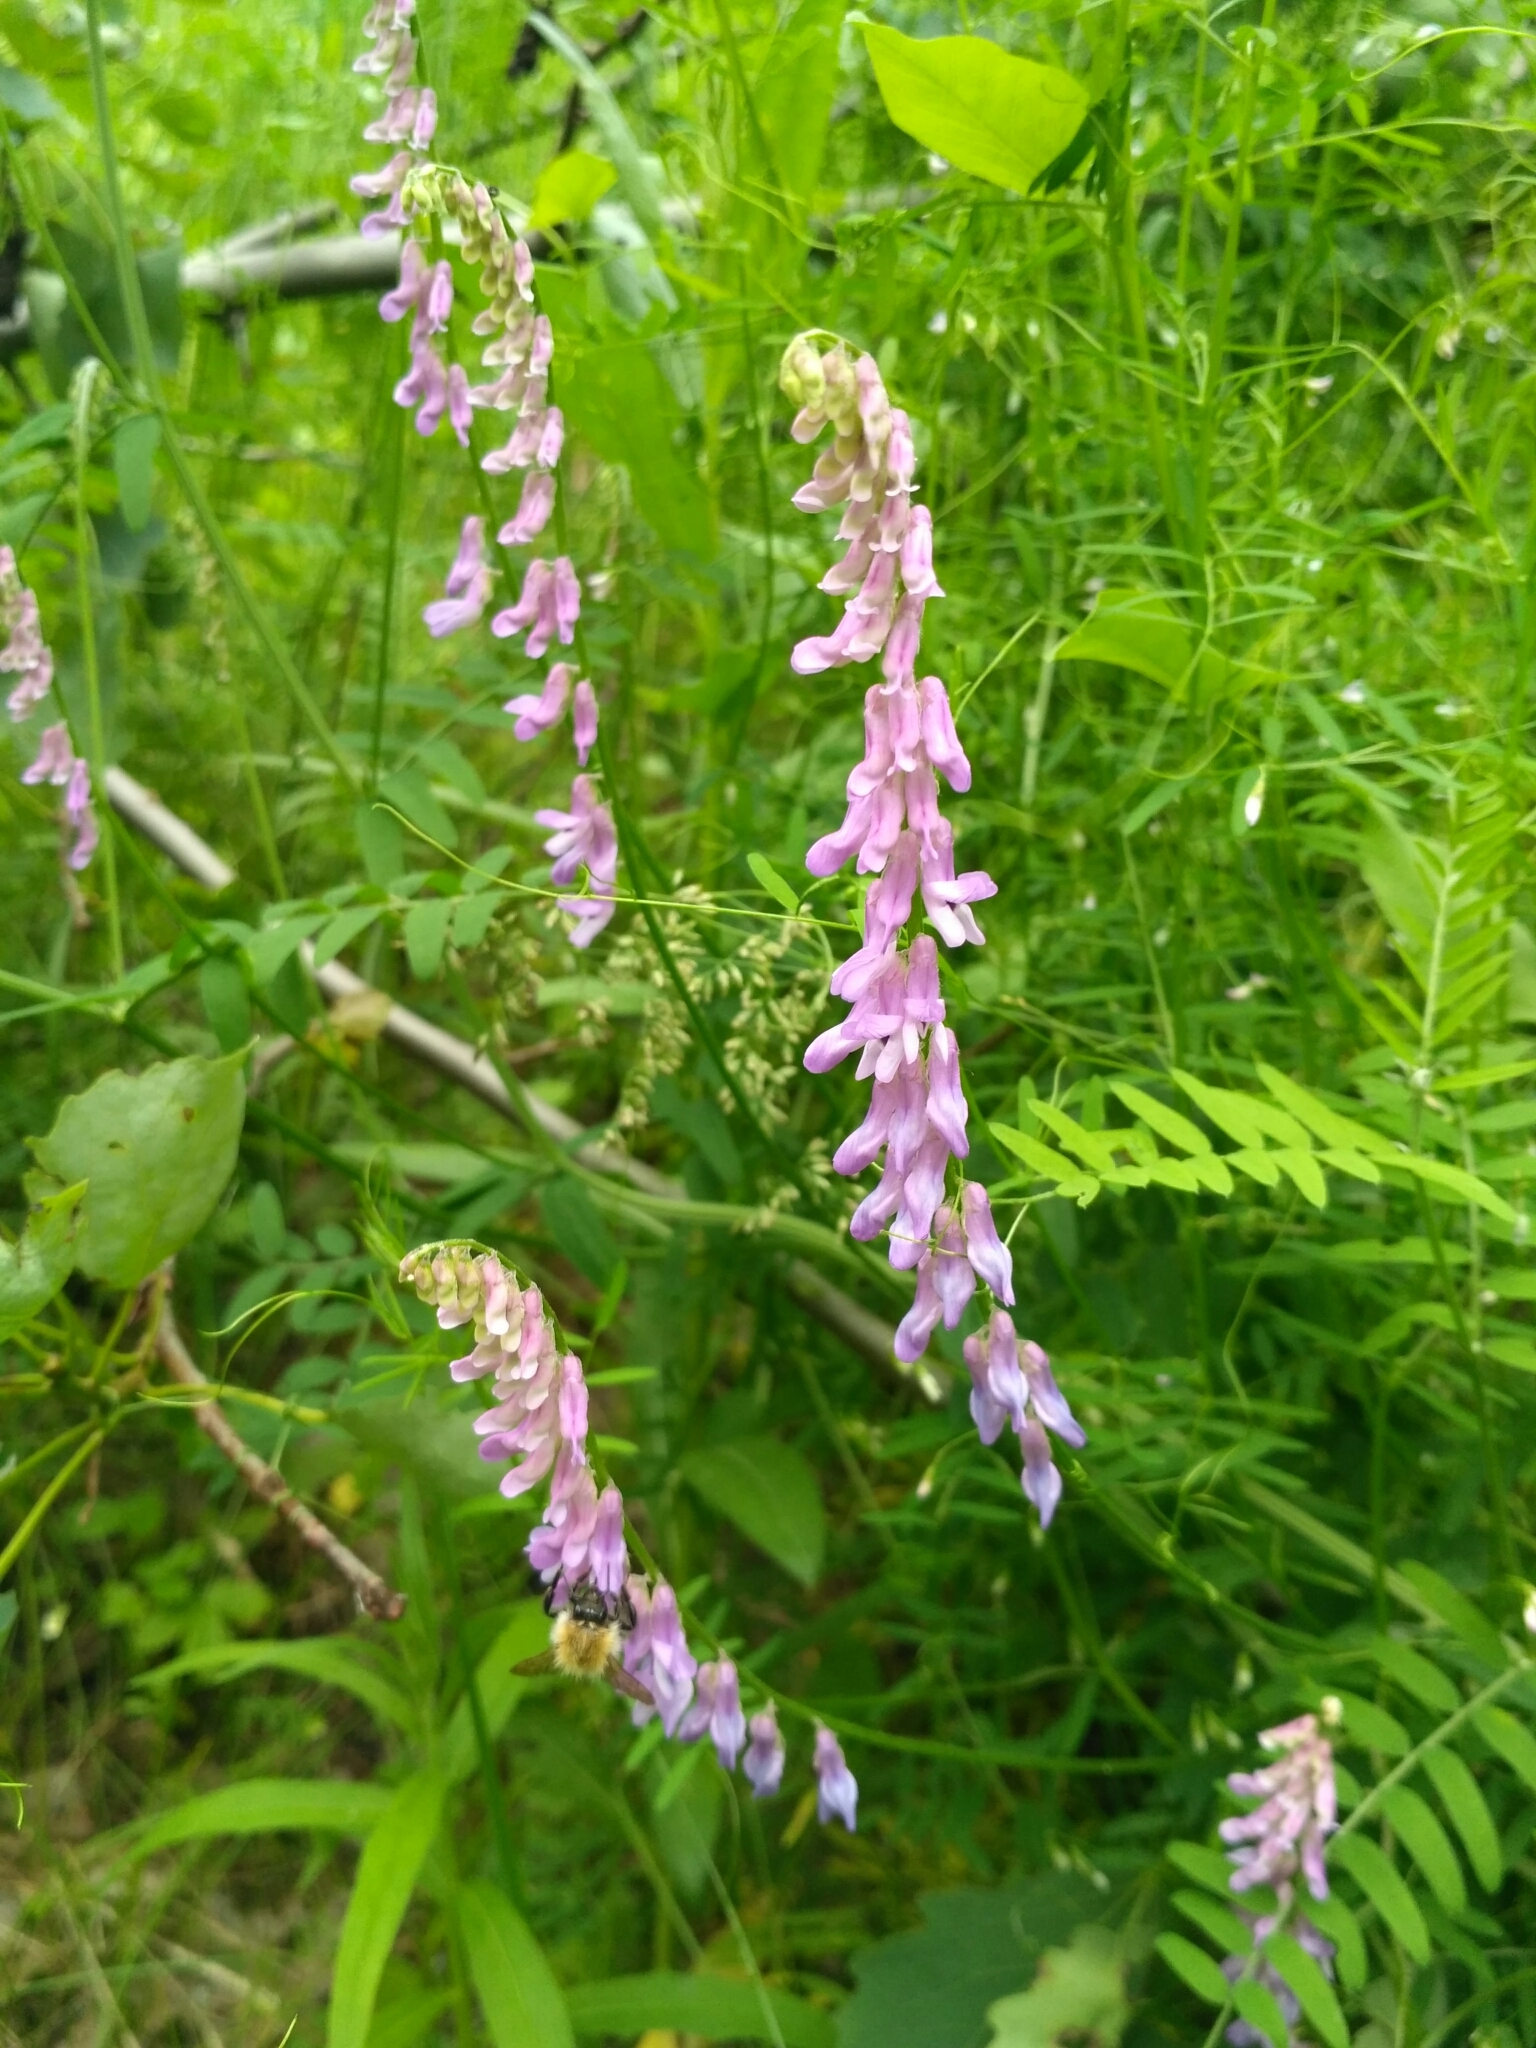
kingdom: Plantae
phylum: Tracheophyta
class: Magnoliopsida
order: Fabales
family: Fabaceae
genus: Vicia
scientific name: Vicia tenuifolia
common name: Fine-leaved vetch
